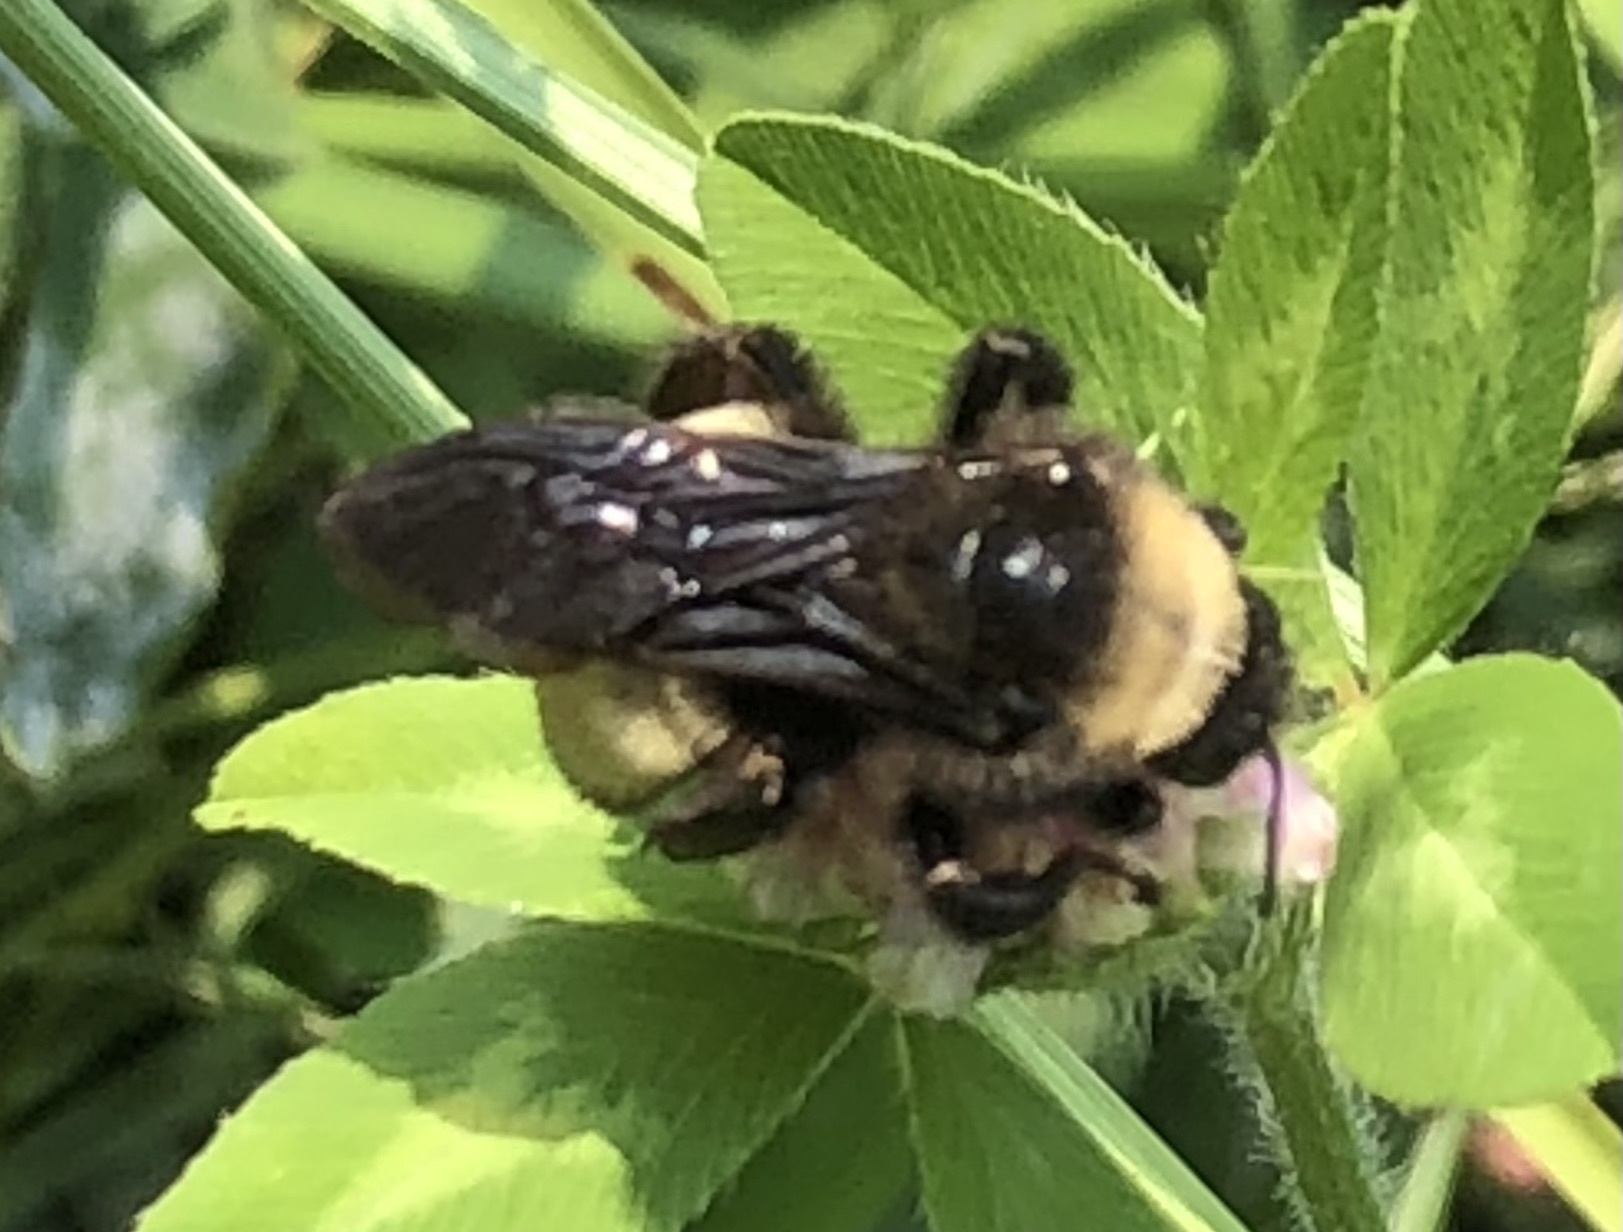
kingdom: Animalia
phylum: Arthropoda
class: Insecta
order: Hymenoptera
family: Apidae
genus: Bombus
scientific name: Bombus pensylvanicus
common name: Bumble bee
